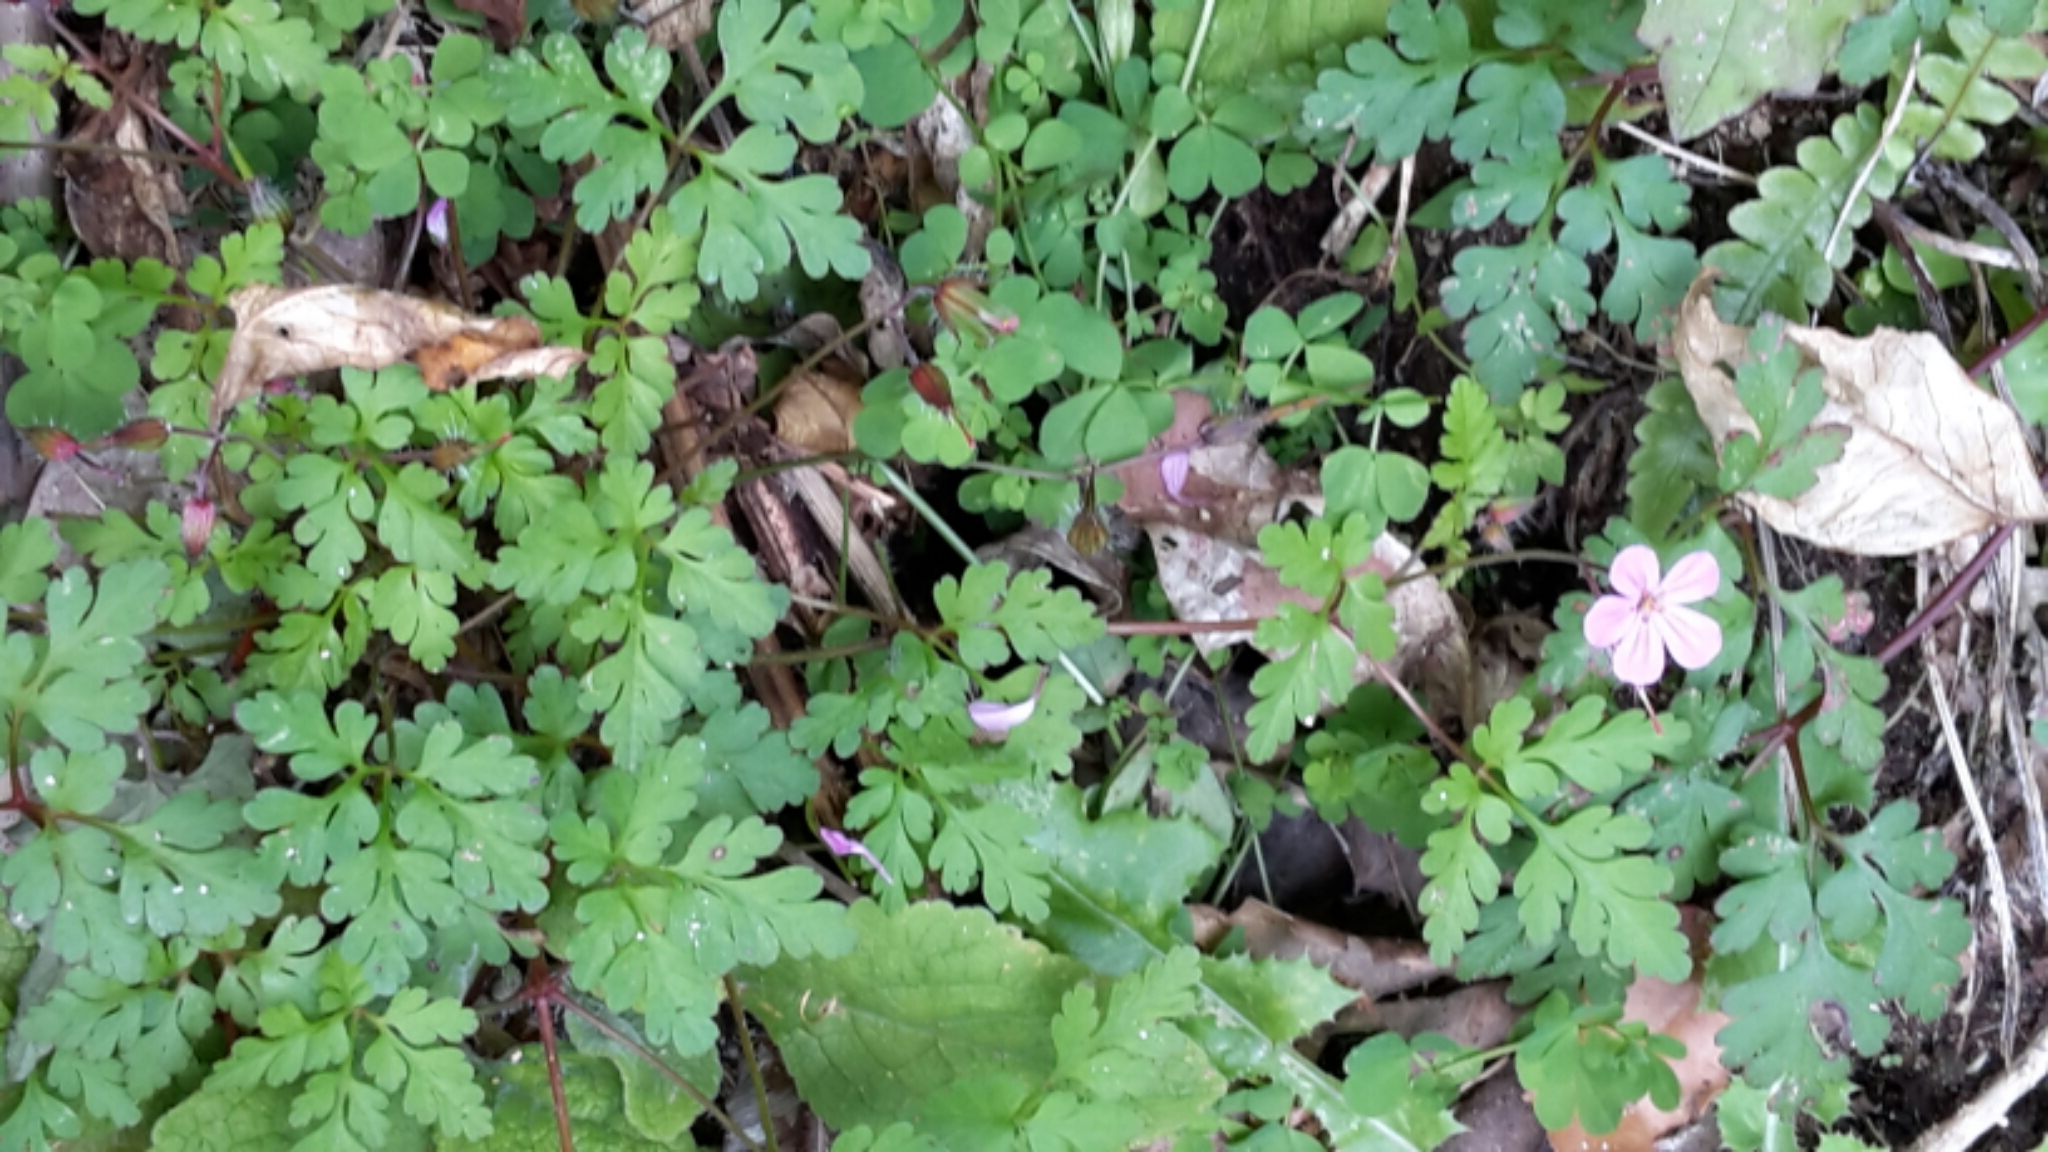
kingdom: Plantae
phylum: Tracheophyta
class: Magnoliopsida
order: Geraniales
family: Geraniaceae
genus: Geranium
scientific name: Geranium robertianum
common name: Herb-robert
